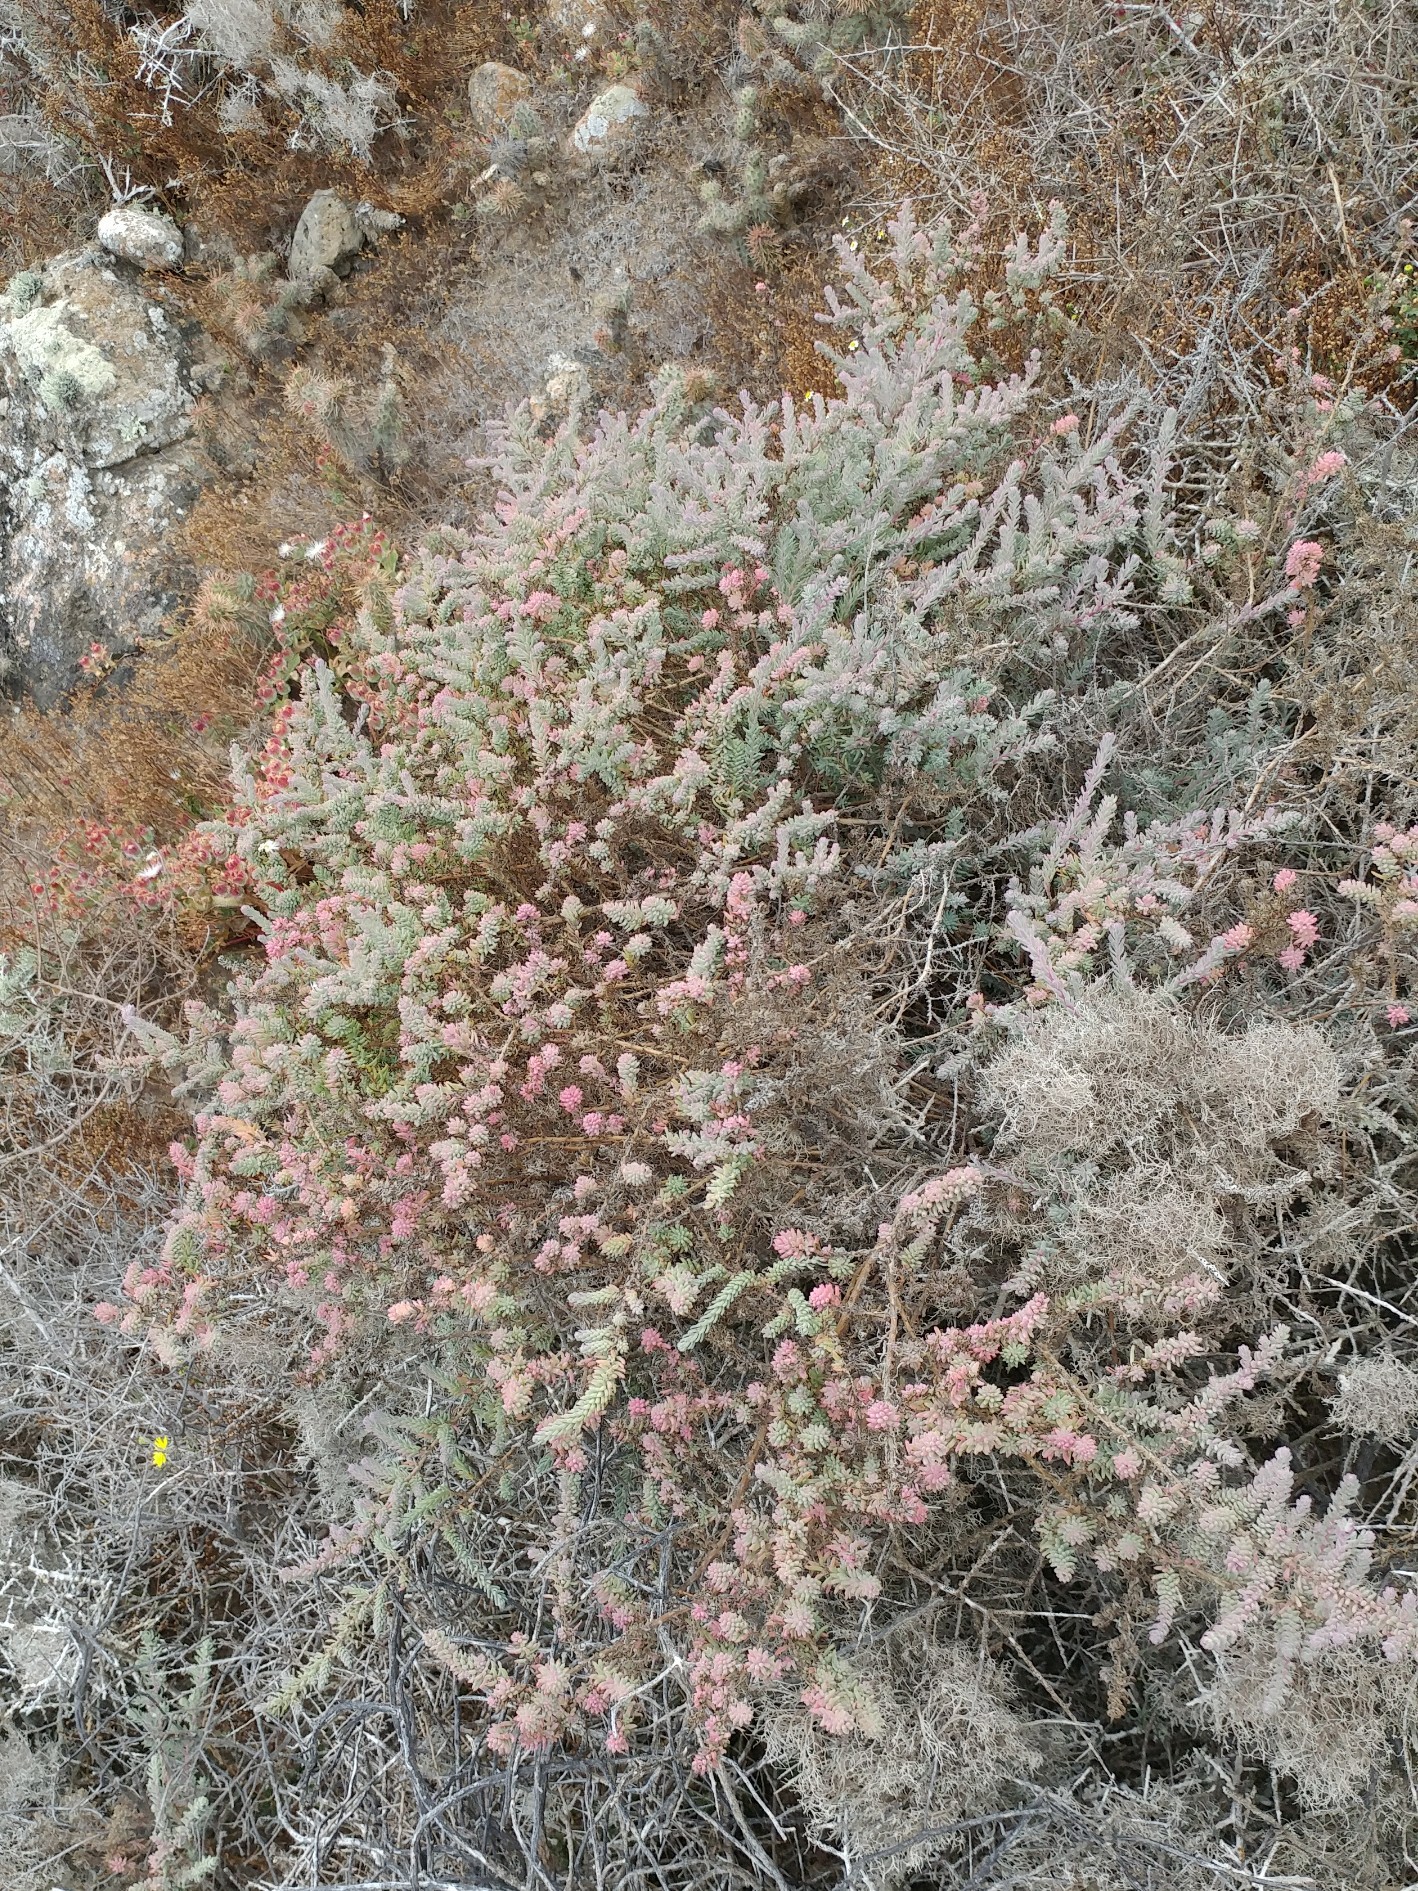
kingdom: Plantae
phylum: Tracheophyta
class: Magnoliopsida
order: Caryophyllales
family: Amaranthaceae
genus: Suaeda
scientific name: Suaeda taxifolia
